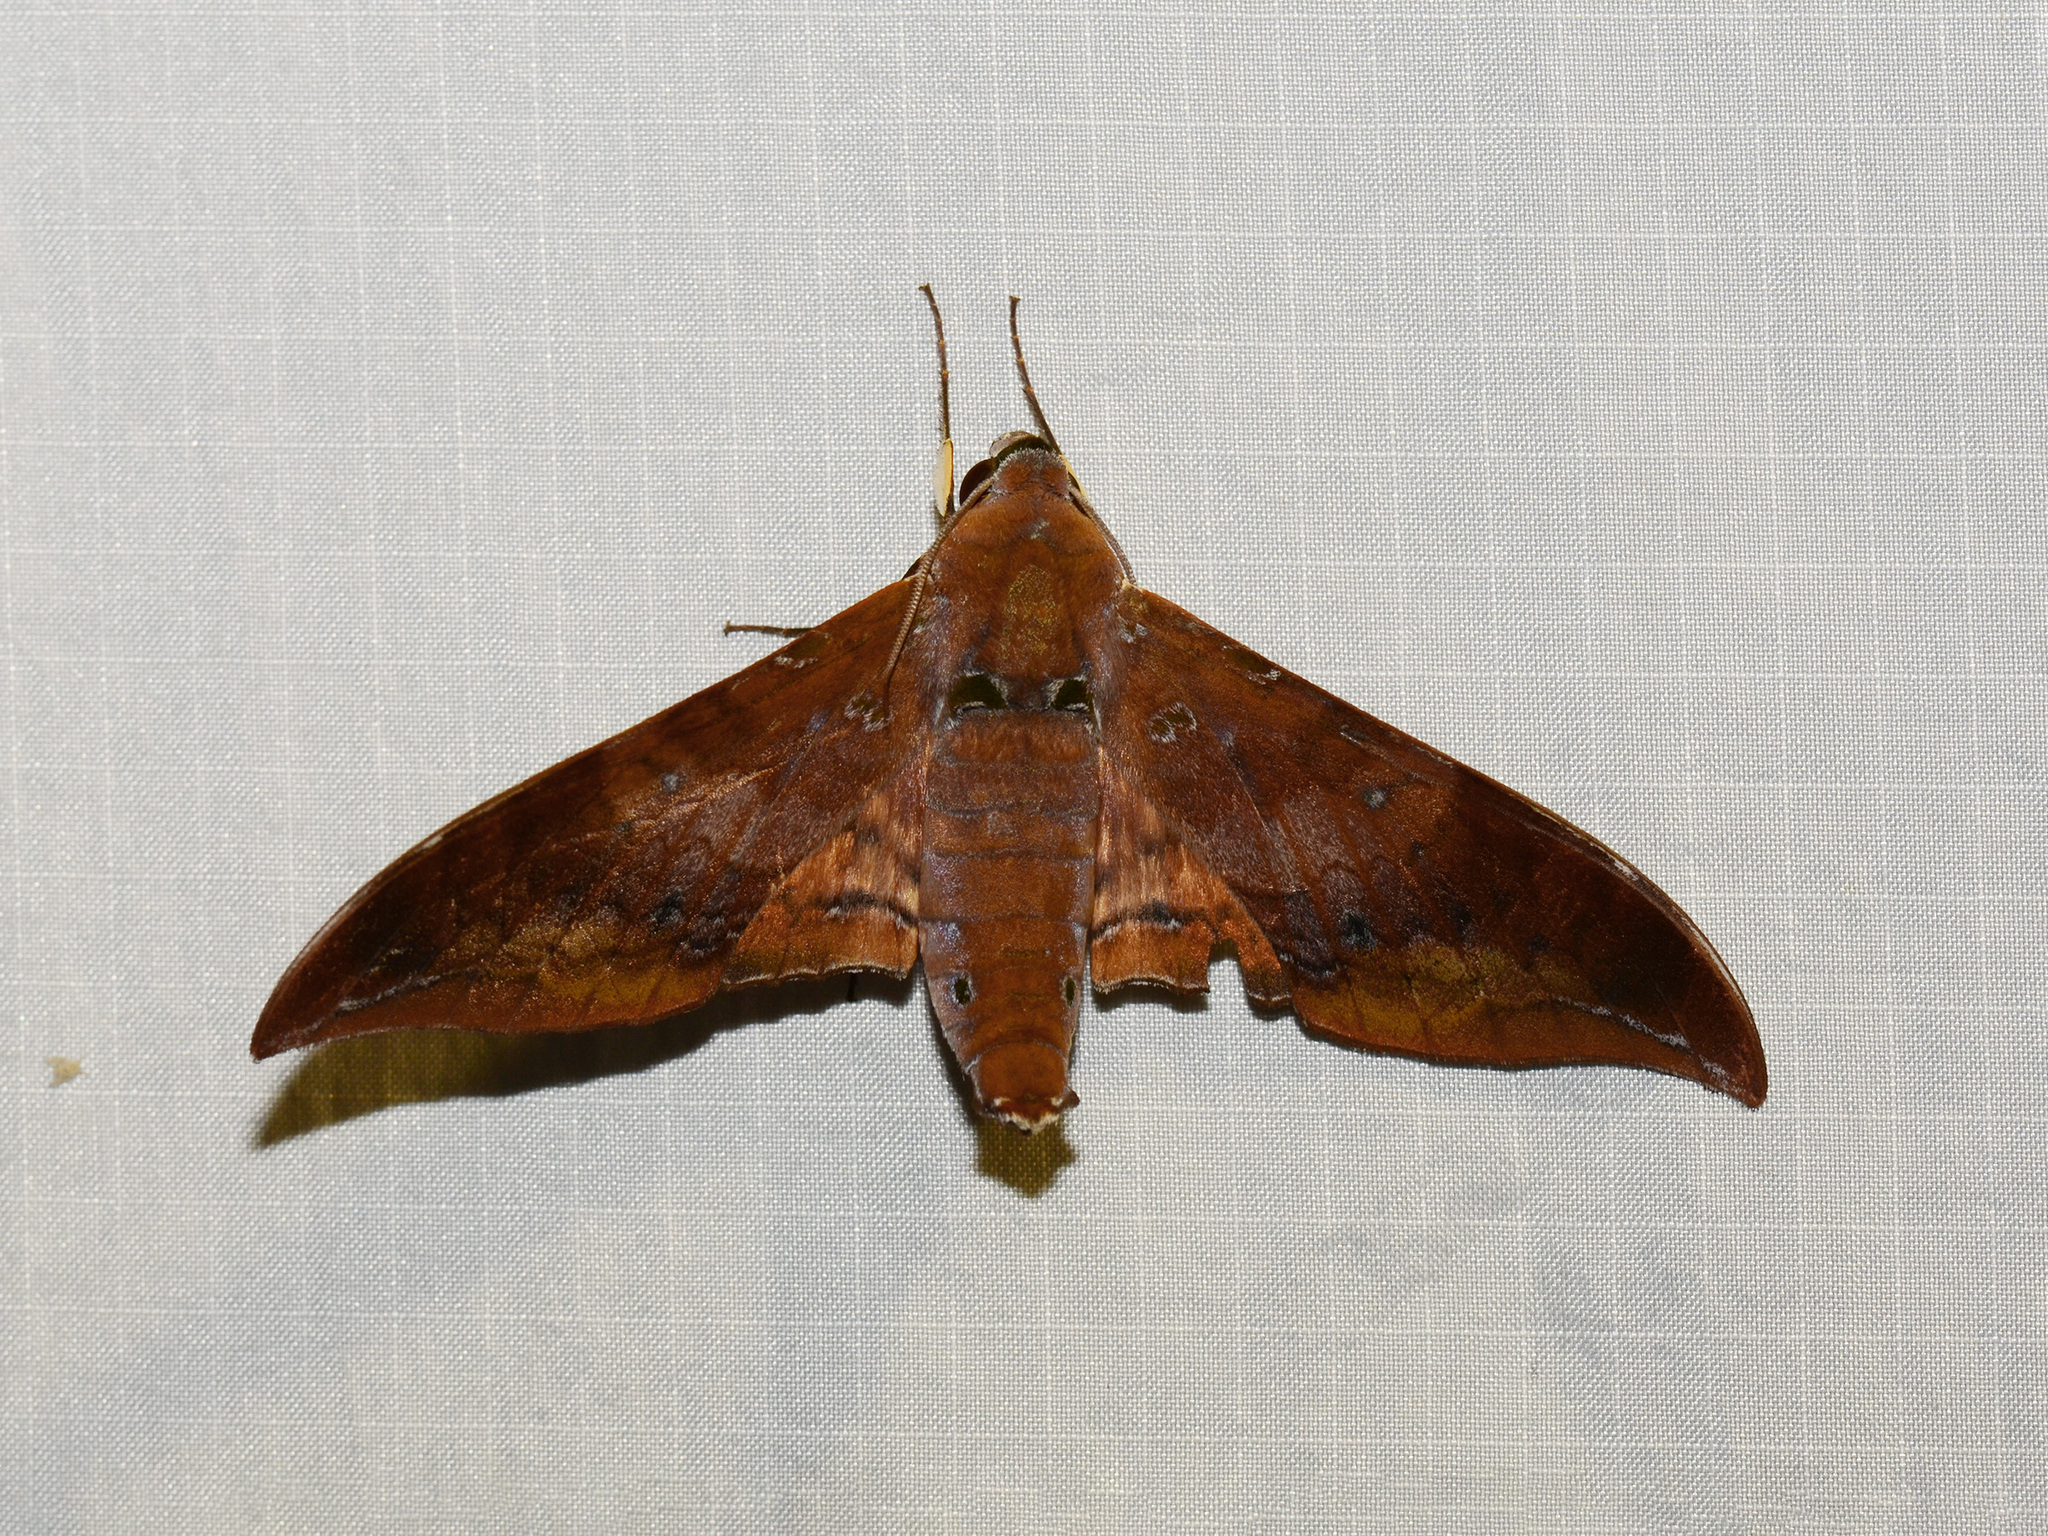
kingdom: Animalia
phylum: Arthropoda
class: Insecta
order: Lepidoptera
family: Sphingidae
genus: Ambulyx
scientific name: Ambulyx moorei
